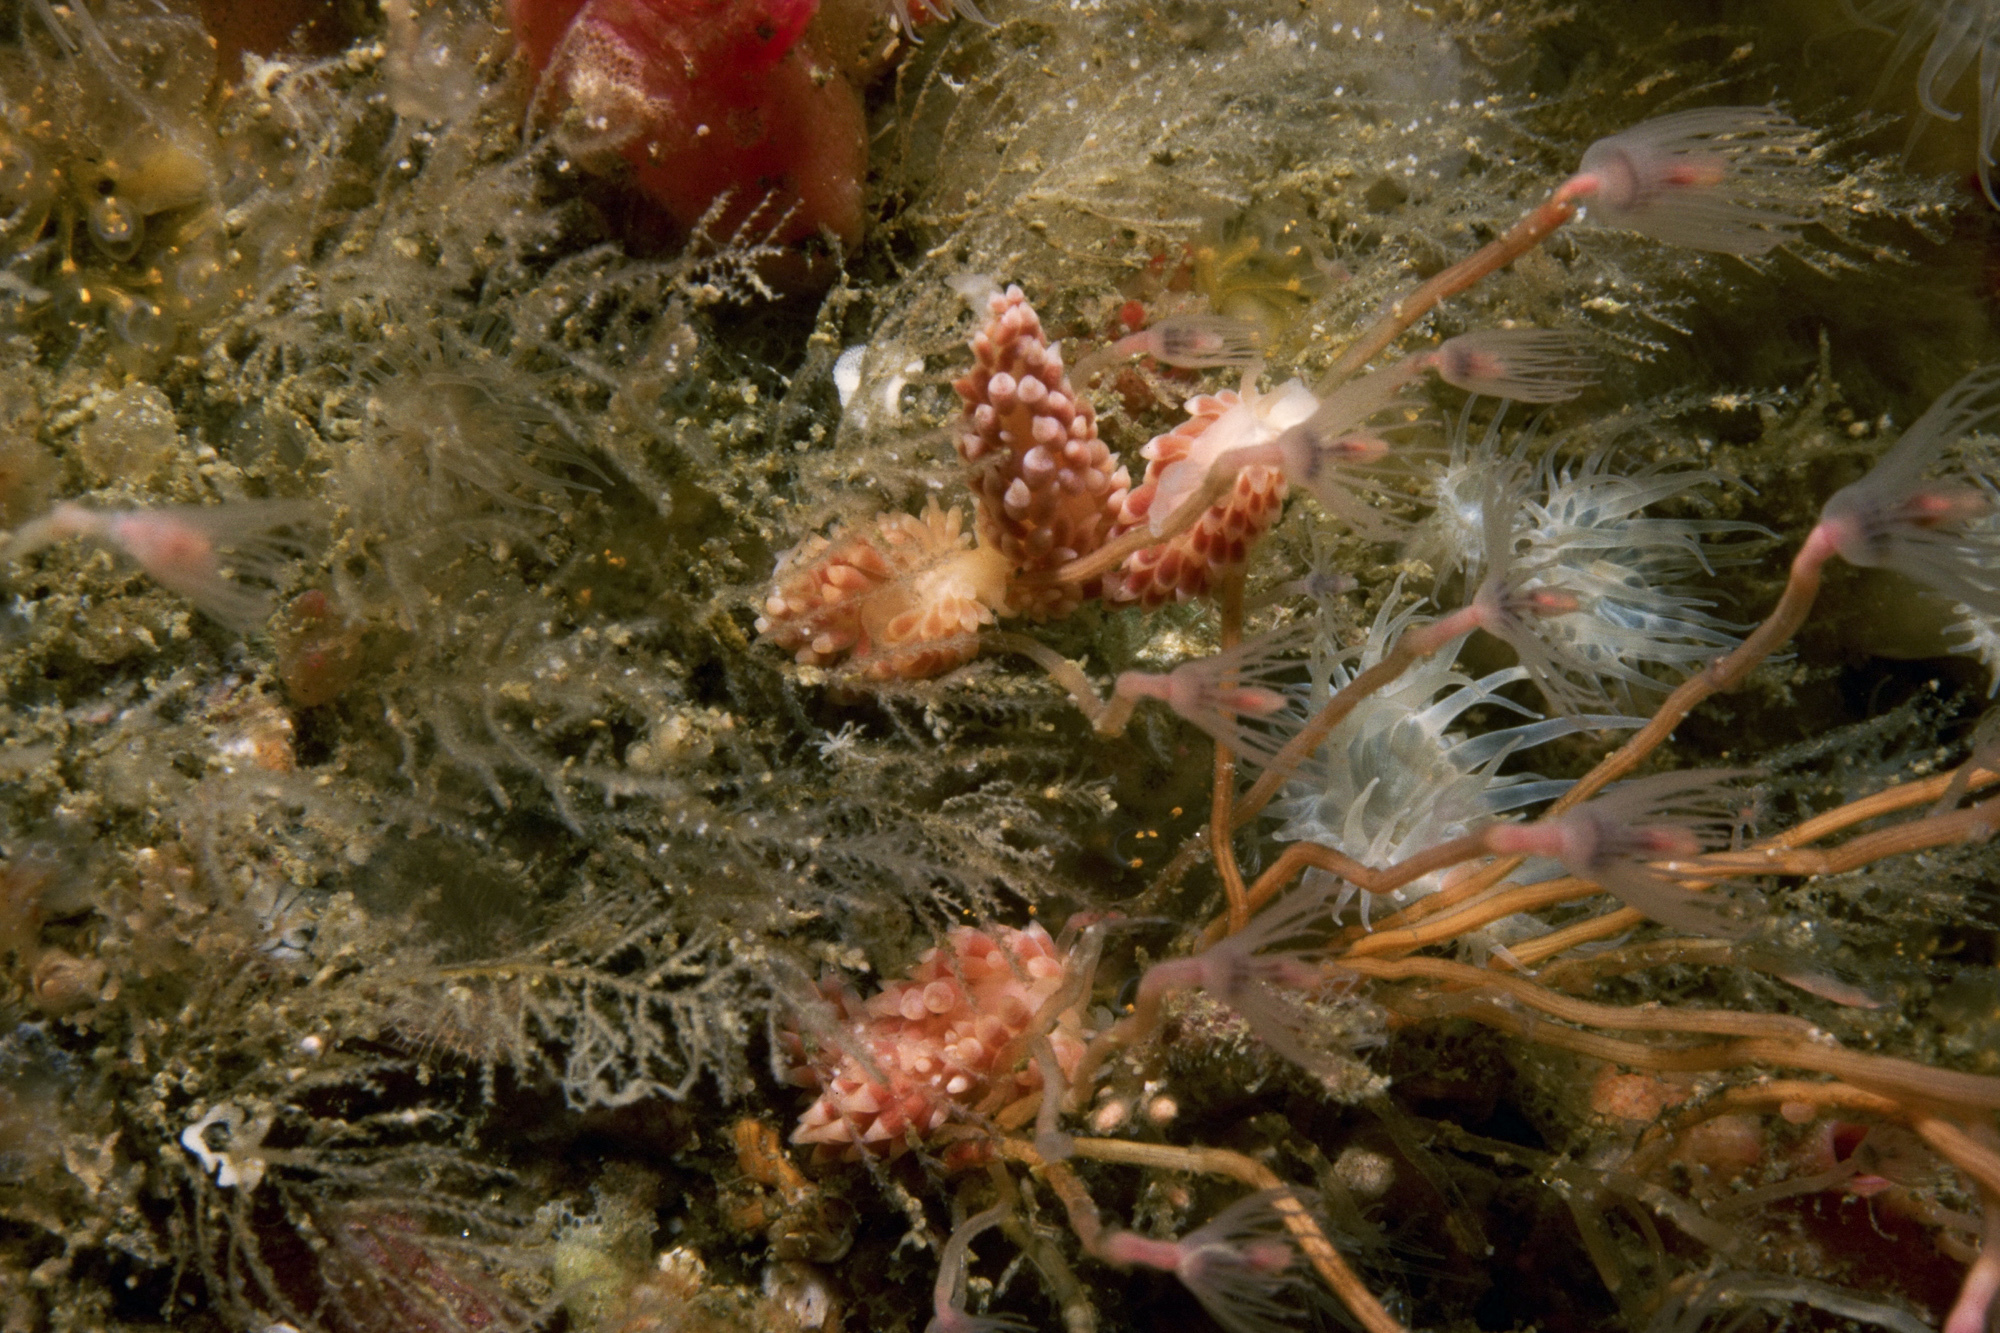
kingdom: Animalia
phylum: Mollusca
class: Gastropoda
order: Nudibranchia
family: Trinchesiidae
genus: Catriona
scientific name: Catriona aurantia
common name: Corange-tip cuthona
